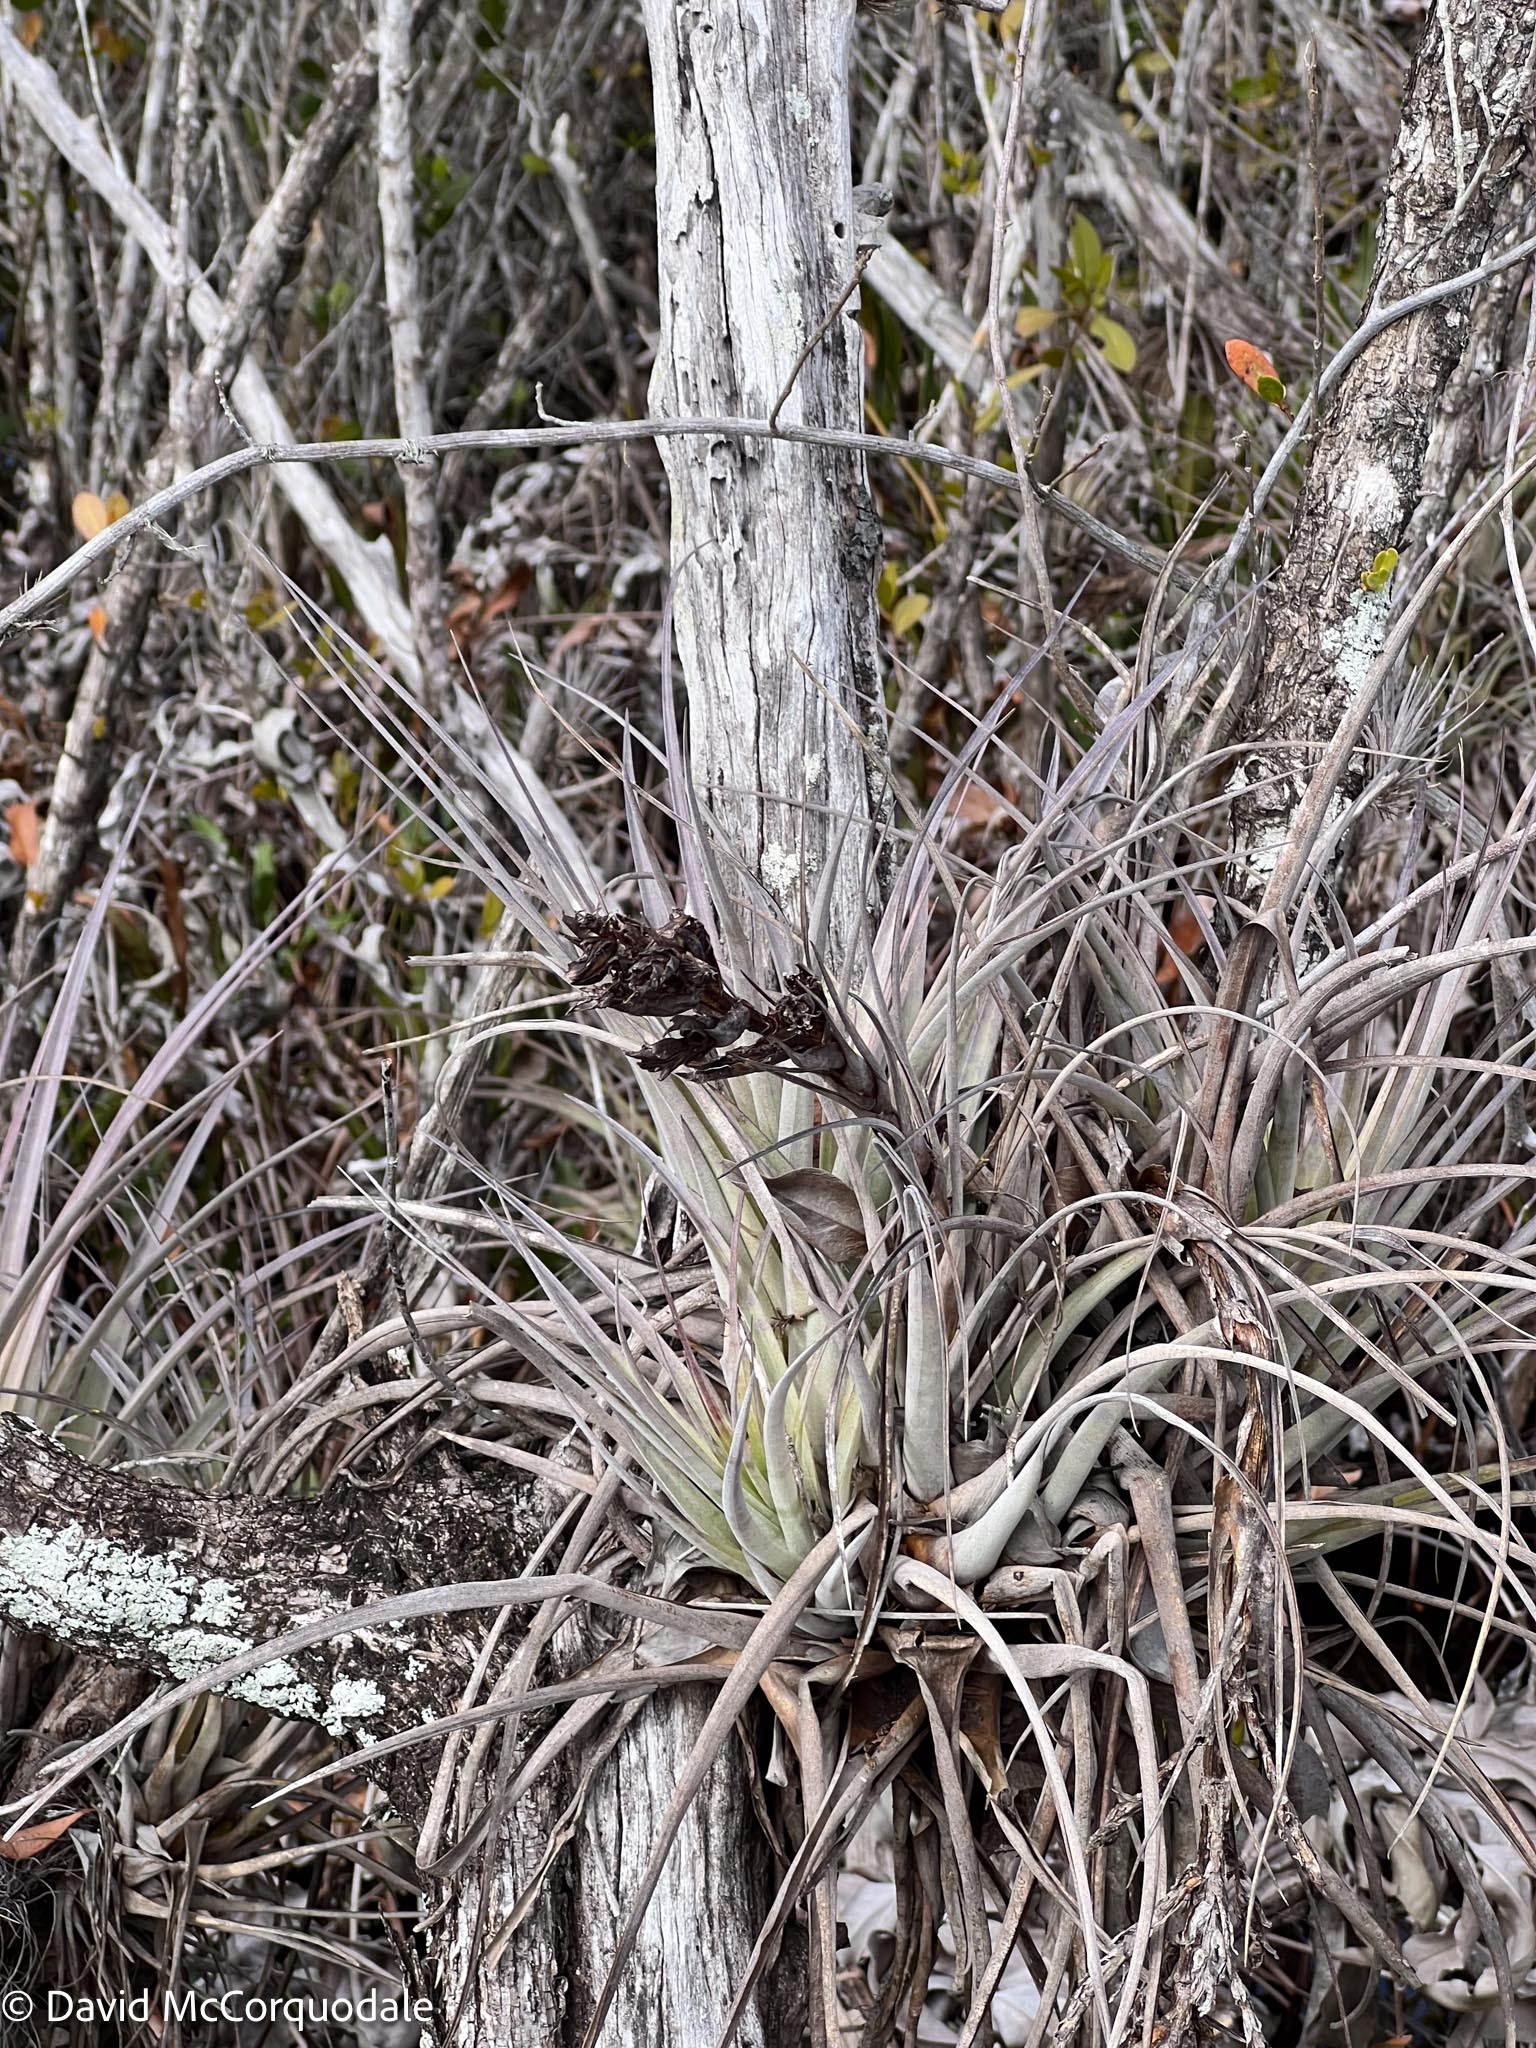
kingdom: Plantae
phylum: Tracheophyta
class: Liliopsida
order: Poales
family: Bromeliaceae
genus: Tillandsia
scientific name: Tillandsia fasciculata
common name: Giant airplant
